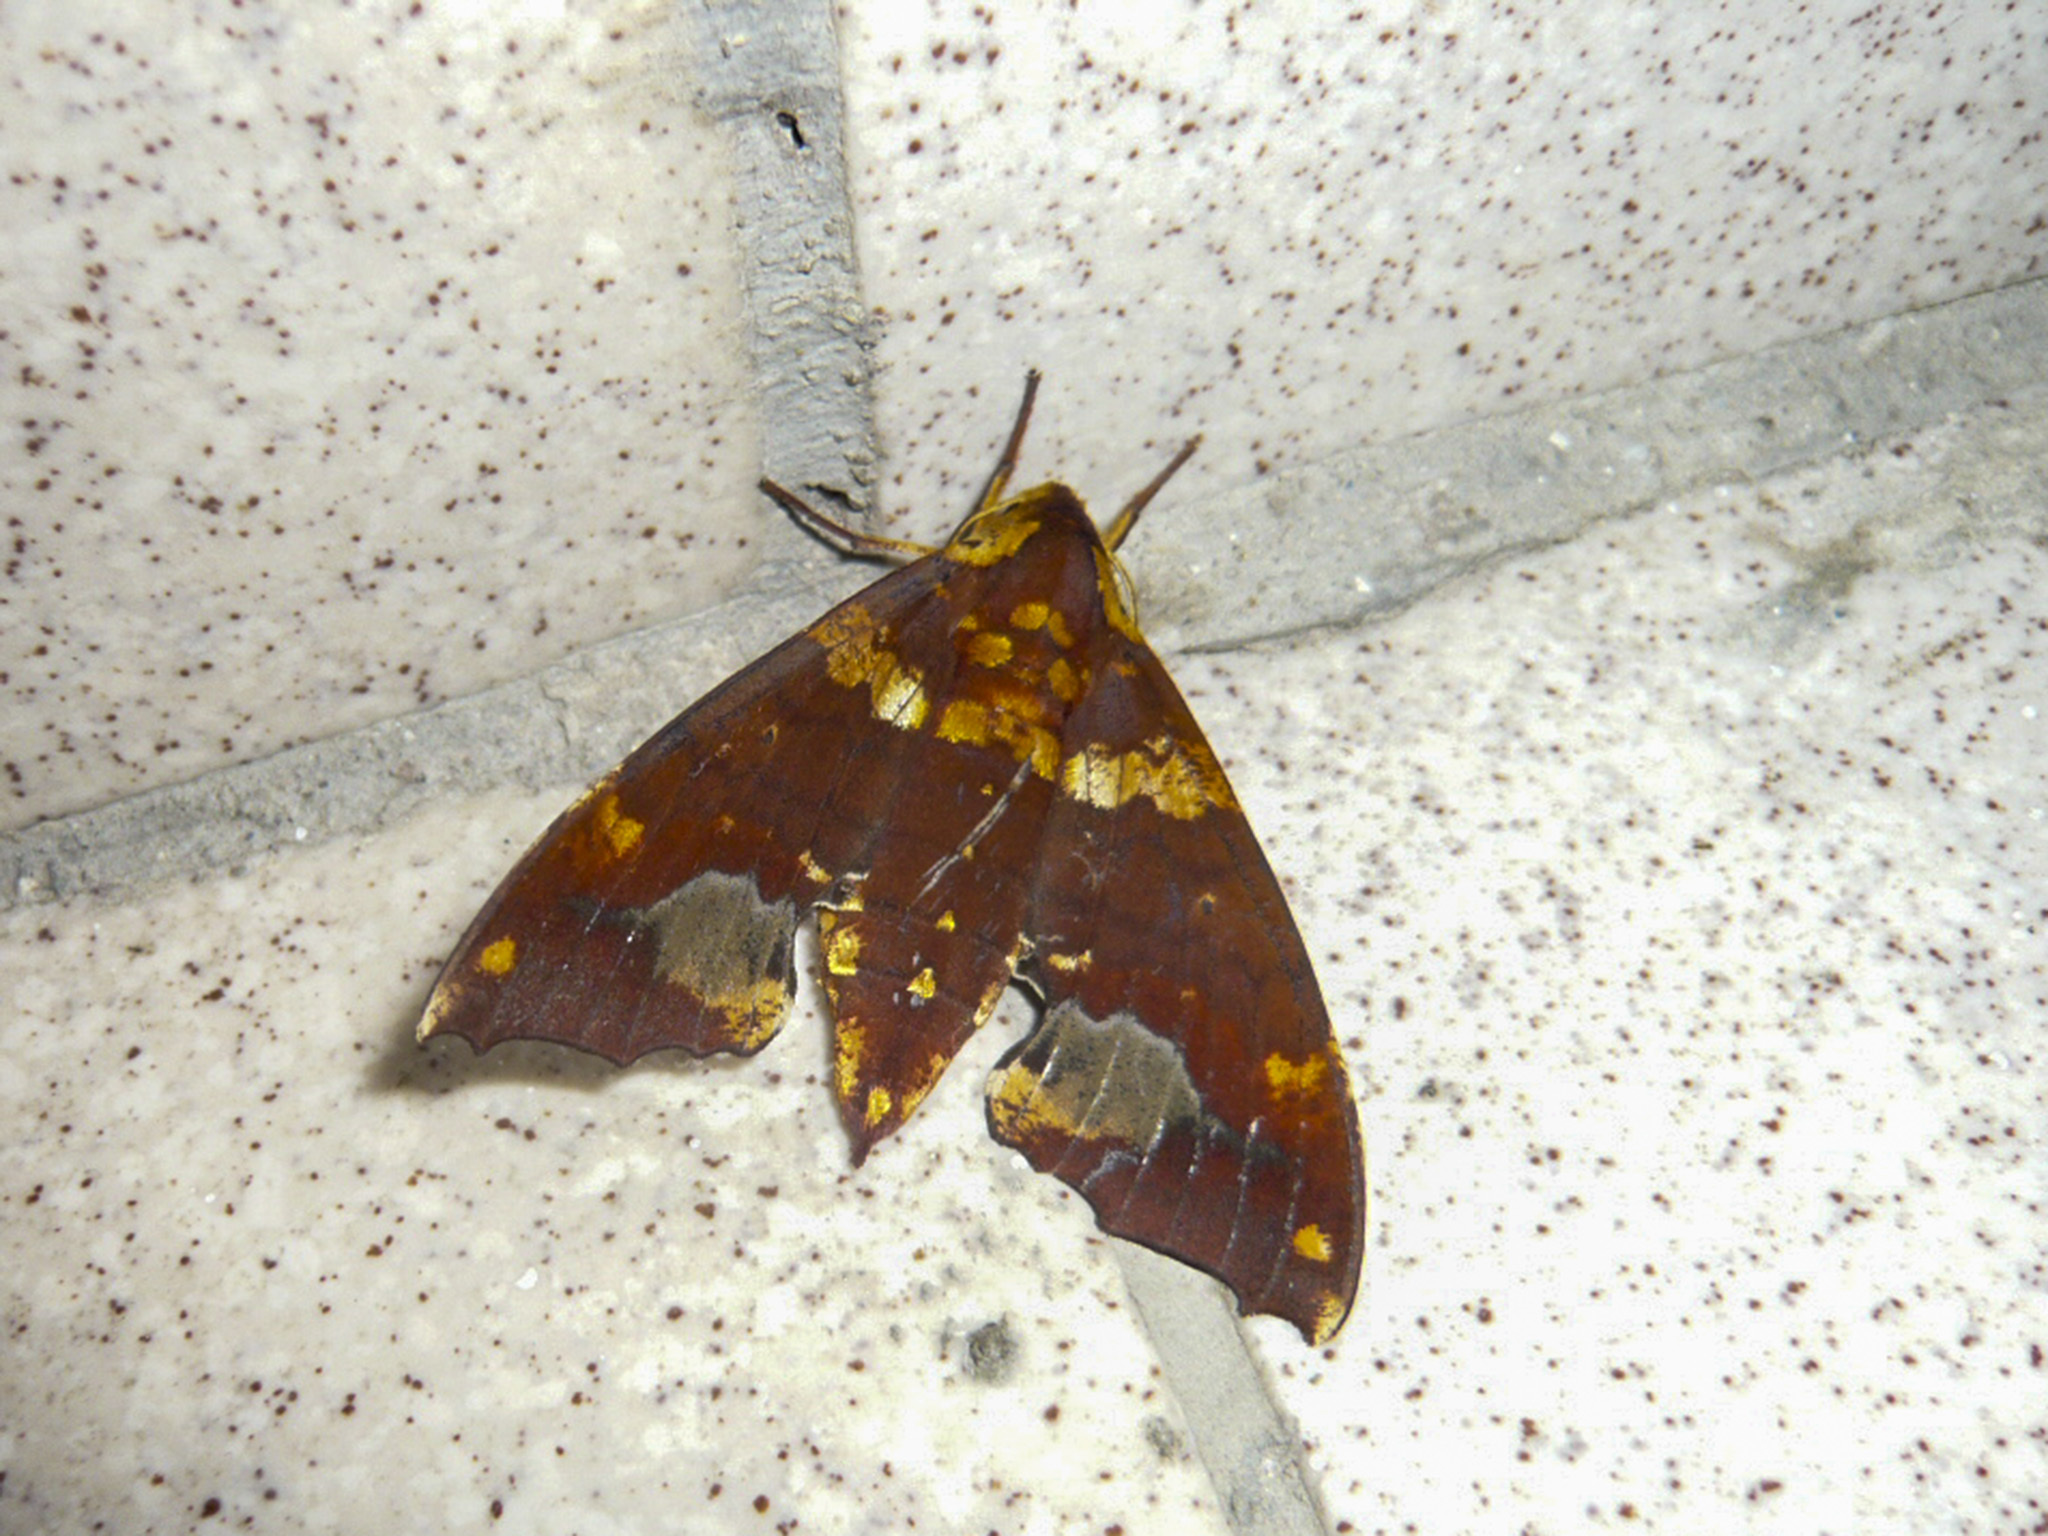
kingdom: Animalia
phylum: Arthropoda
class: Insecta
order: Lepidoptera
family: Sphingidae
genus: Smerinthulus
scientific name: Smerinthulus dohrni
